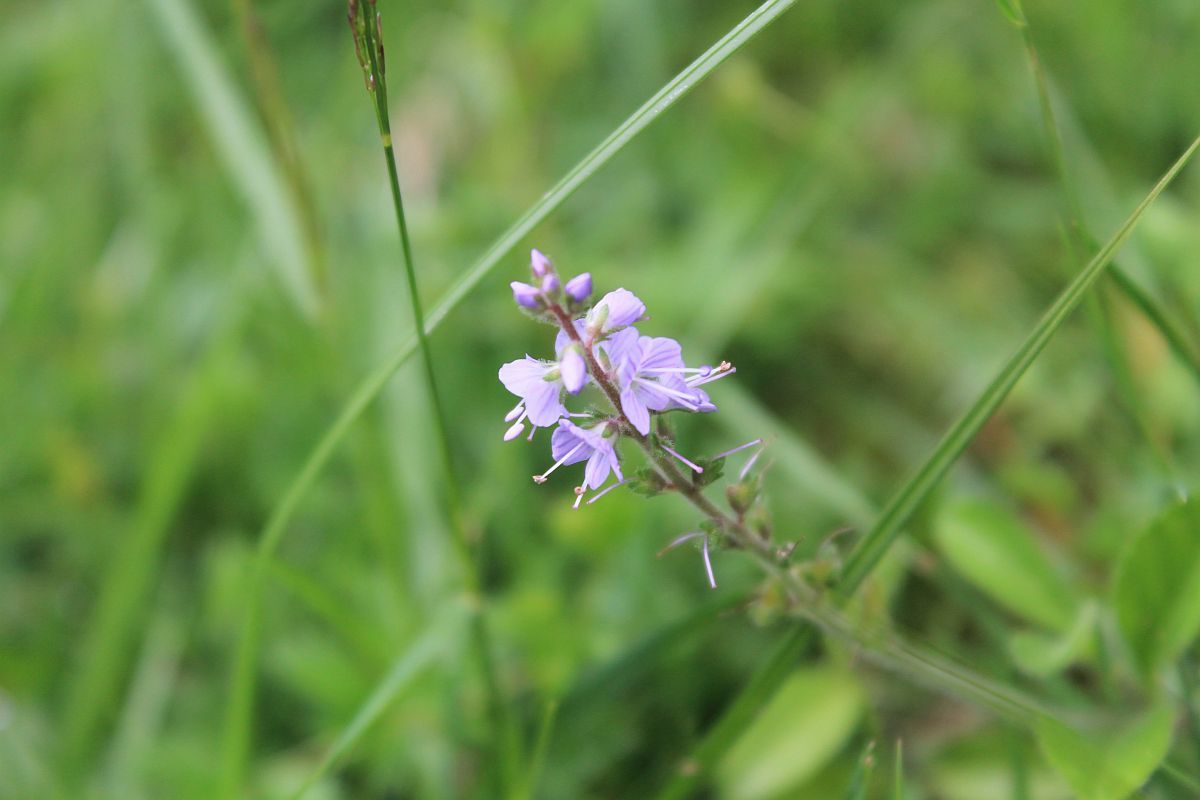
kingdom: Plantae
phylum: Tracheophyta
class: Magnoliopsida
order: Lamiales
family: Plantaginaceae
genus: Veronica
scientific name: Veronica officinalis
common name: Common speedwell
